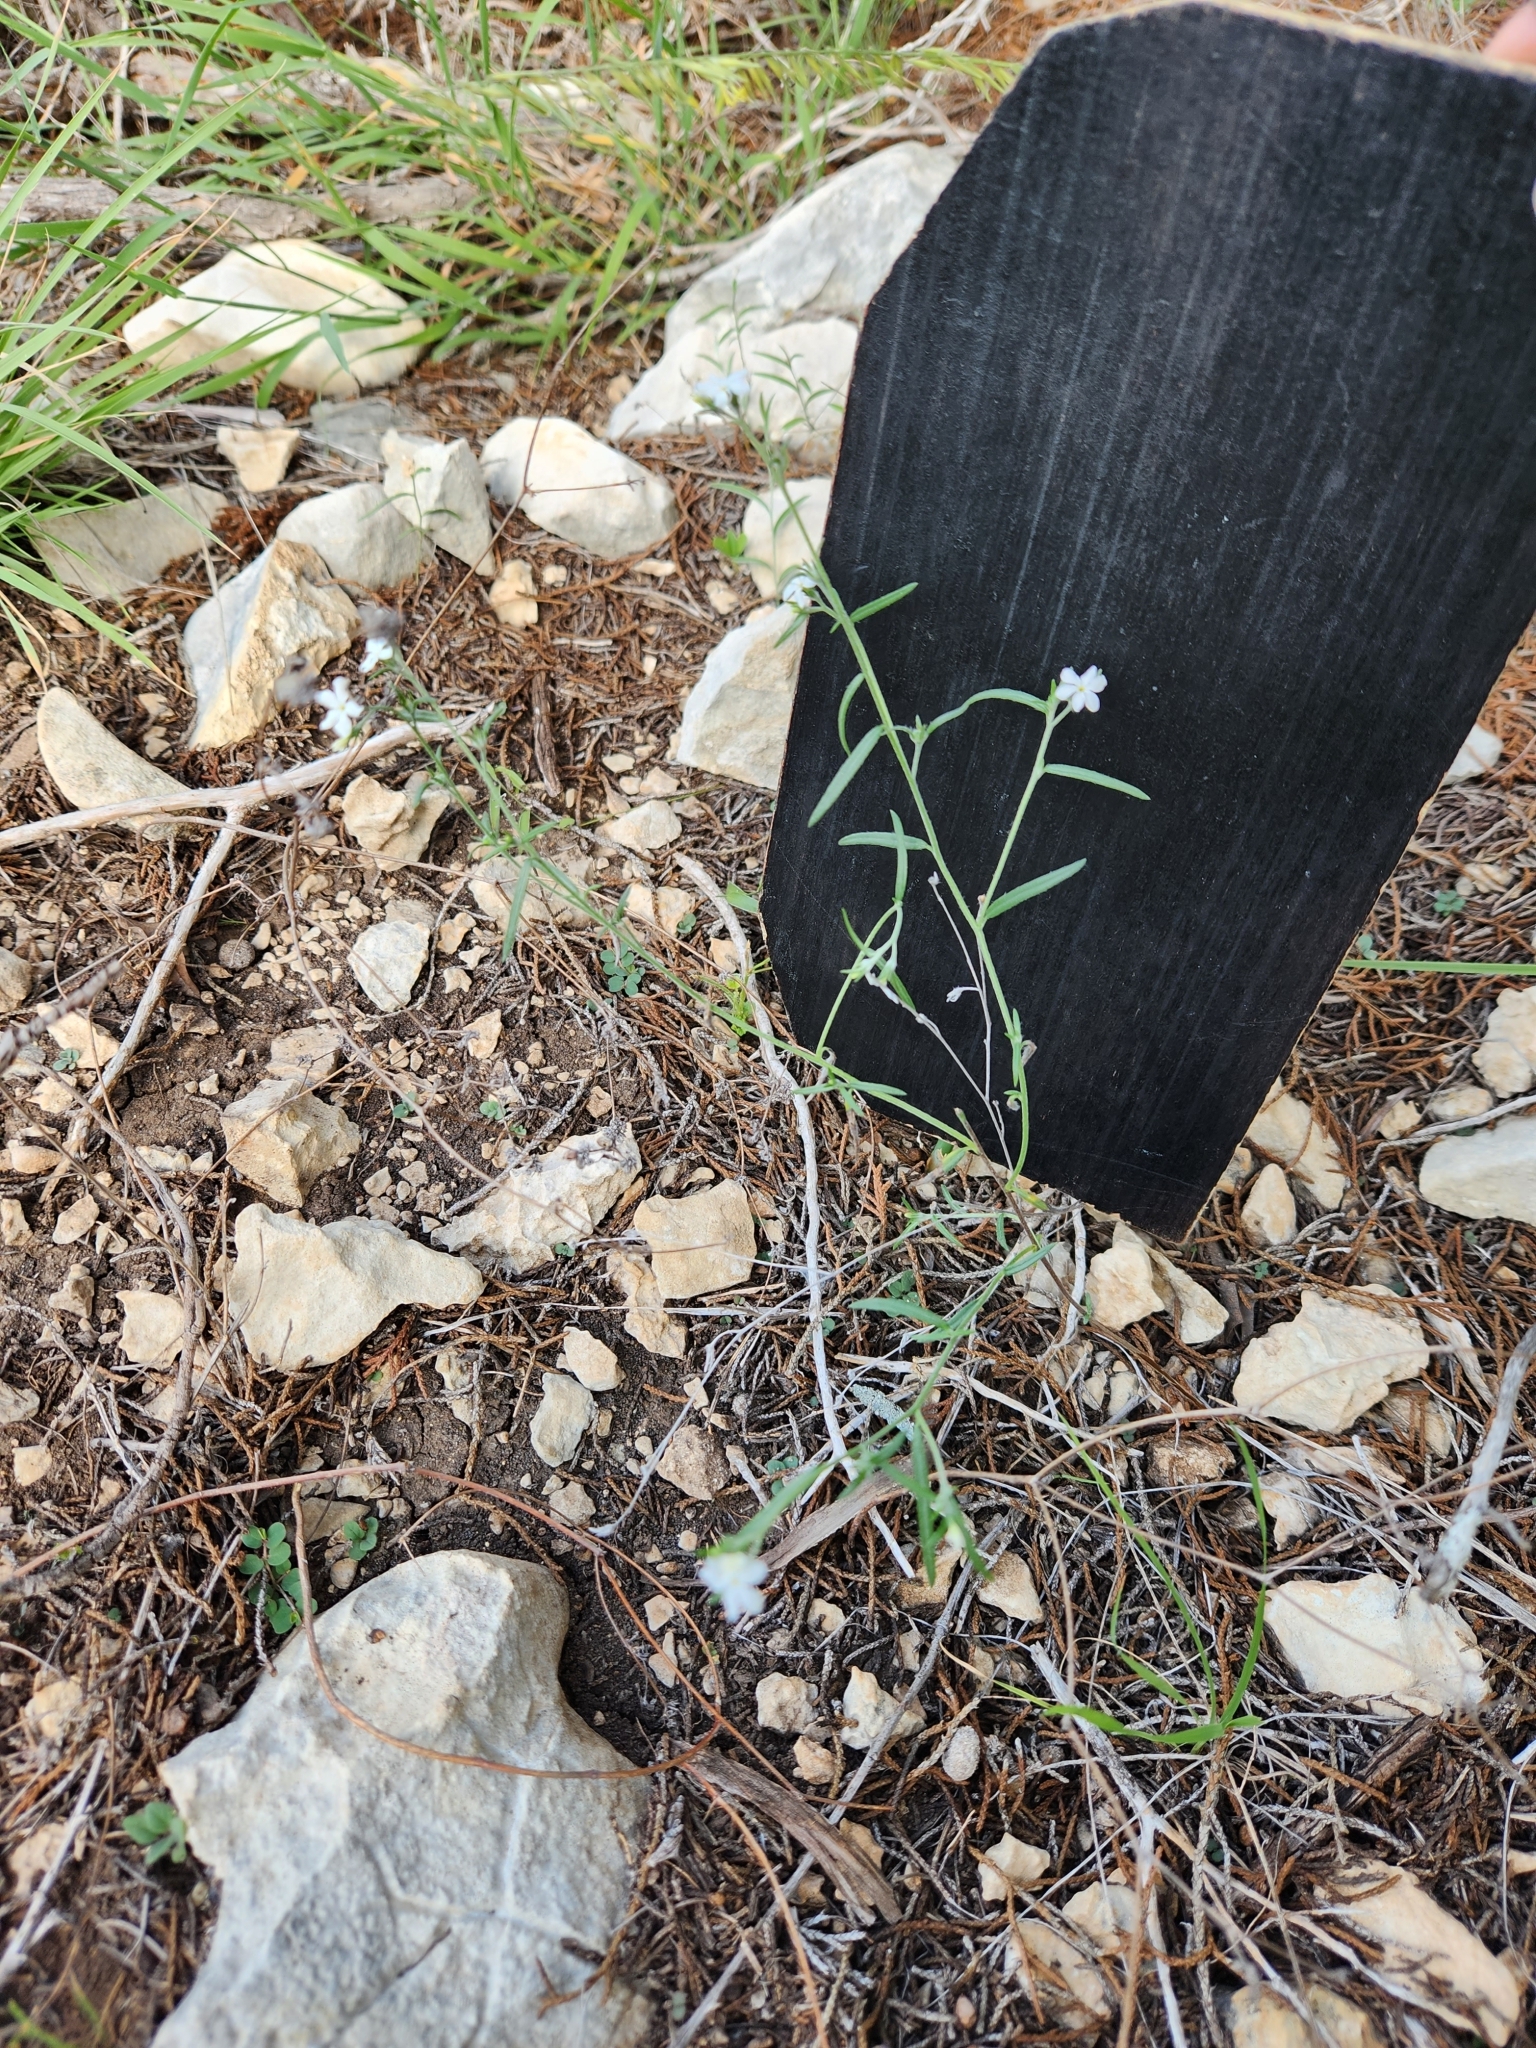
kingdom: Plantae
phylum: Tracheophyta
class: Magnoliopsida
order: Boraginales
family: Heliotropiaceae
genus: Euploca
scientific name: Euploca tenella
